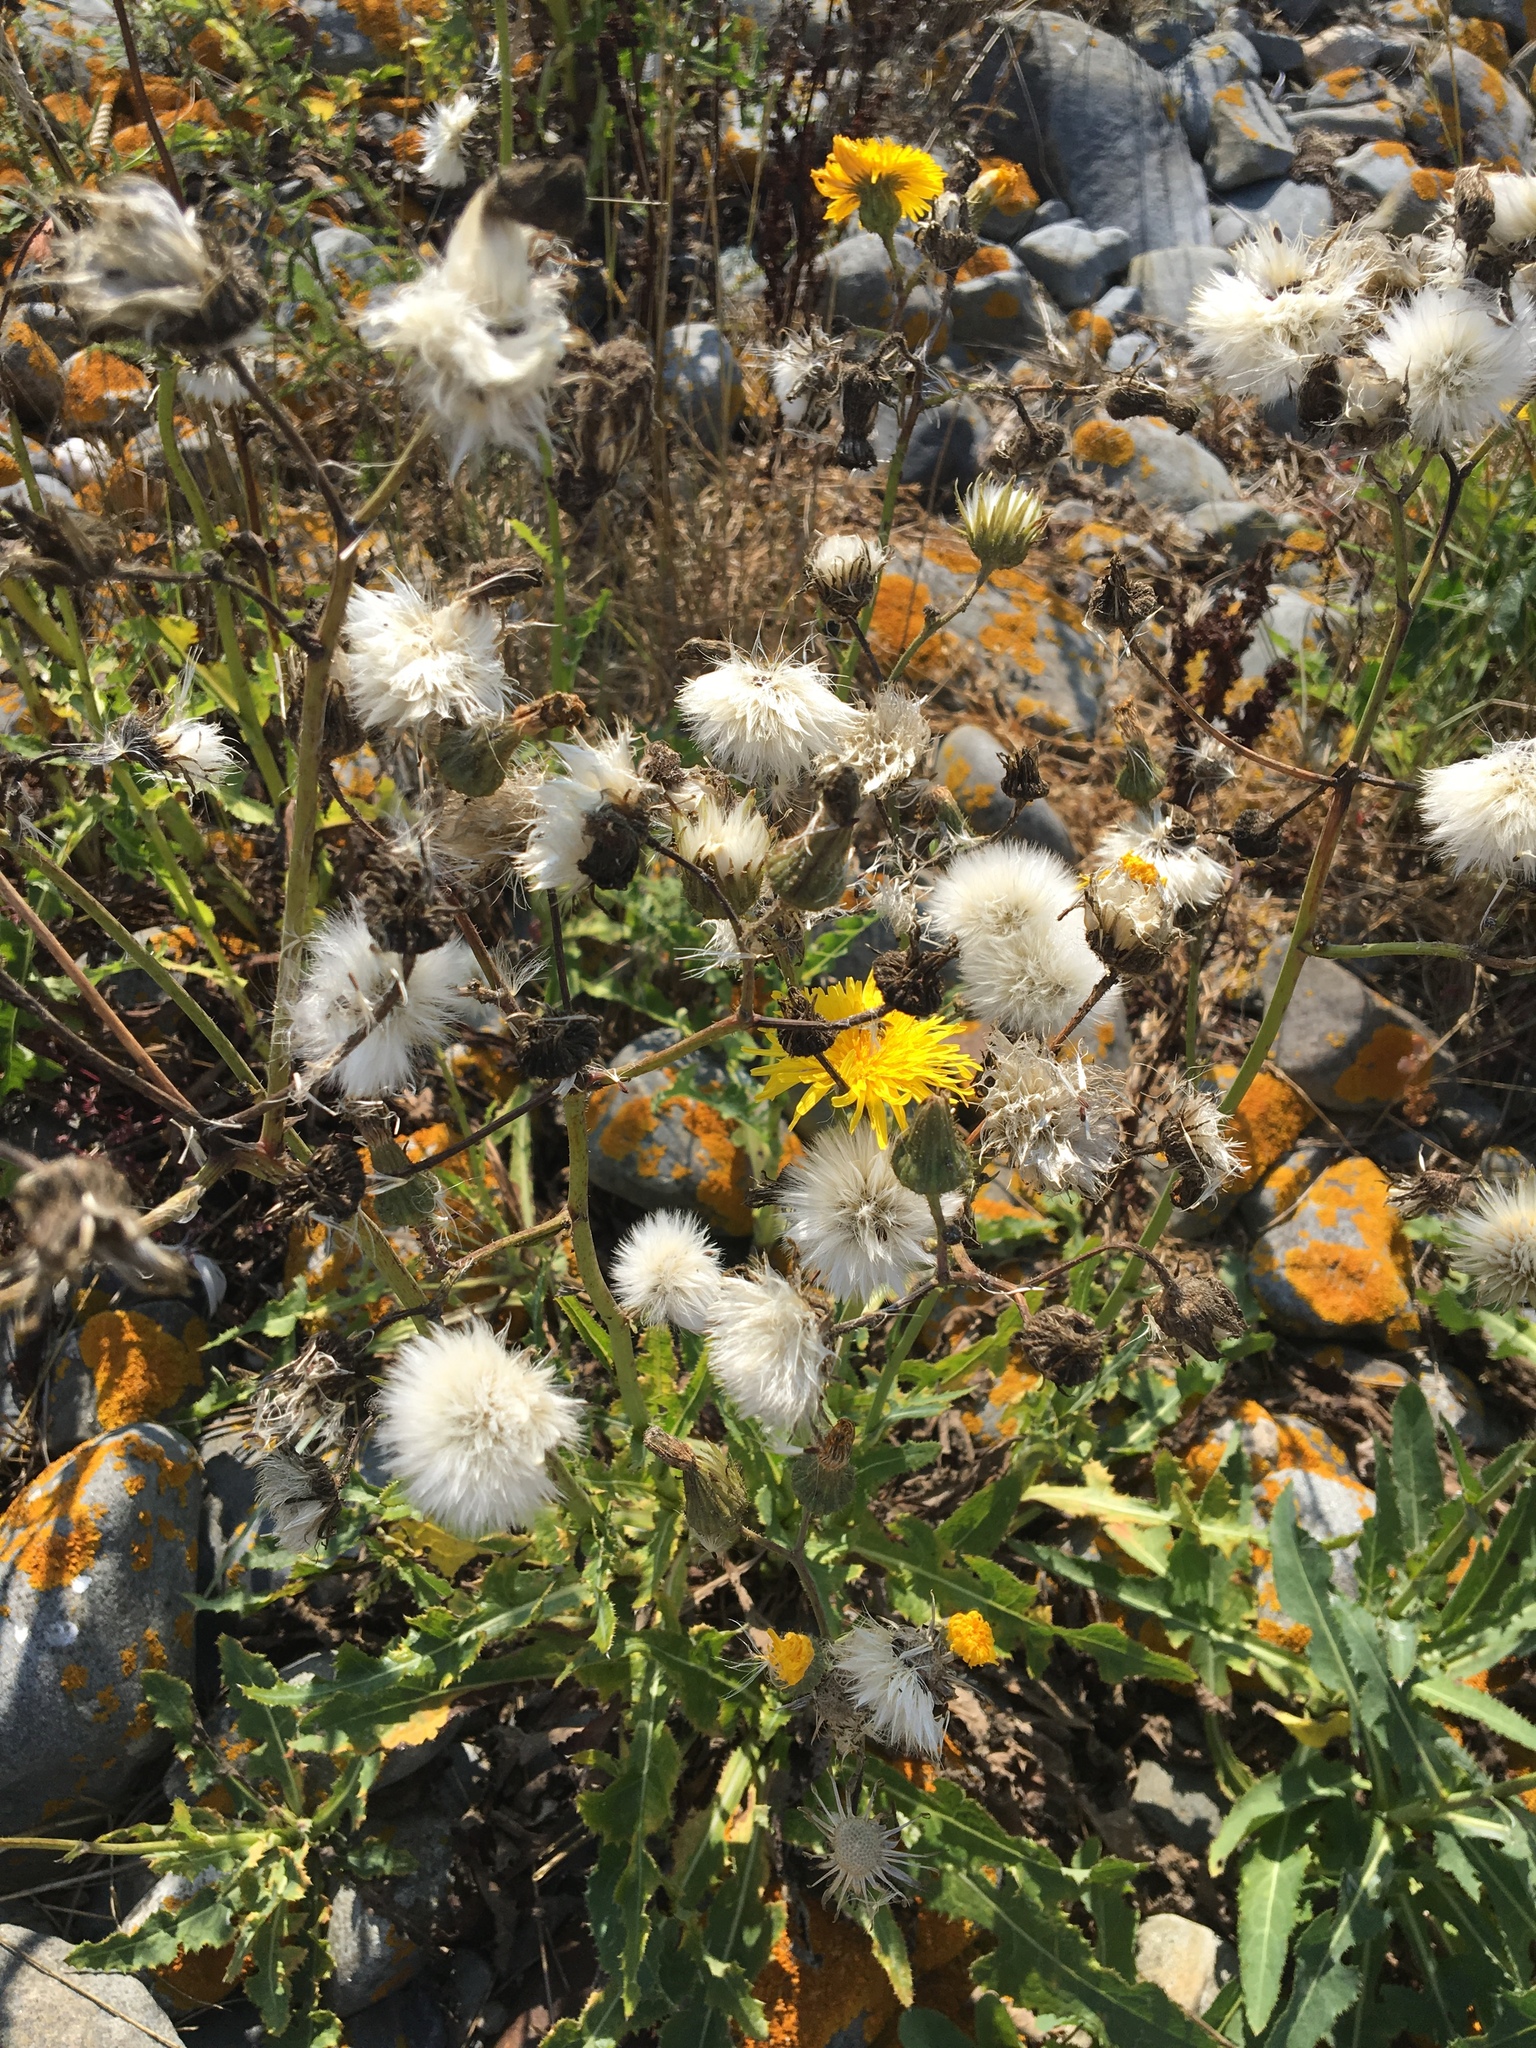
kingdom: Plantae
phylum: Tracheophyta
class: Magnoliopsida
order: Asterales
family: Asteraceae
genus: Sonchus
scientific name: Sonchus arvensis
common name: Perennial sow-thistle
